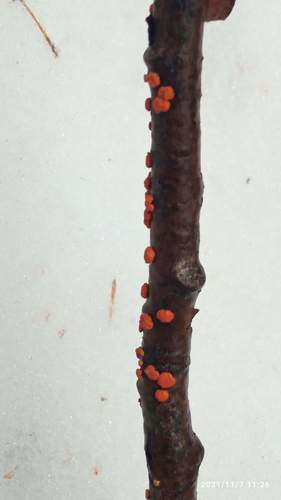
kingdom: Fungi
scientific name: Fungi
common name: Fungi
